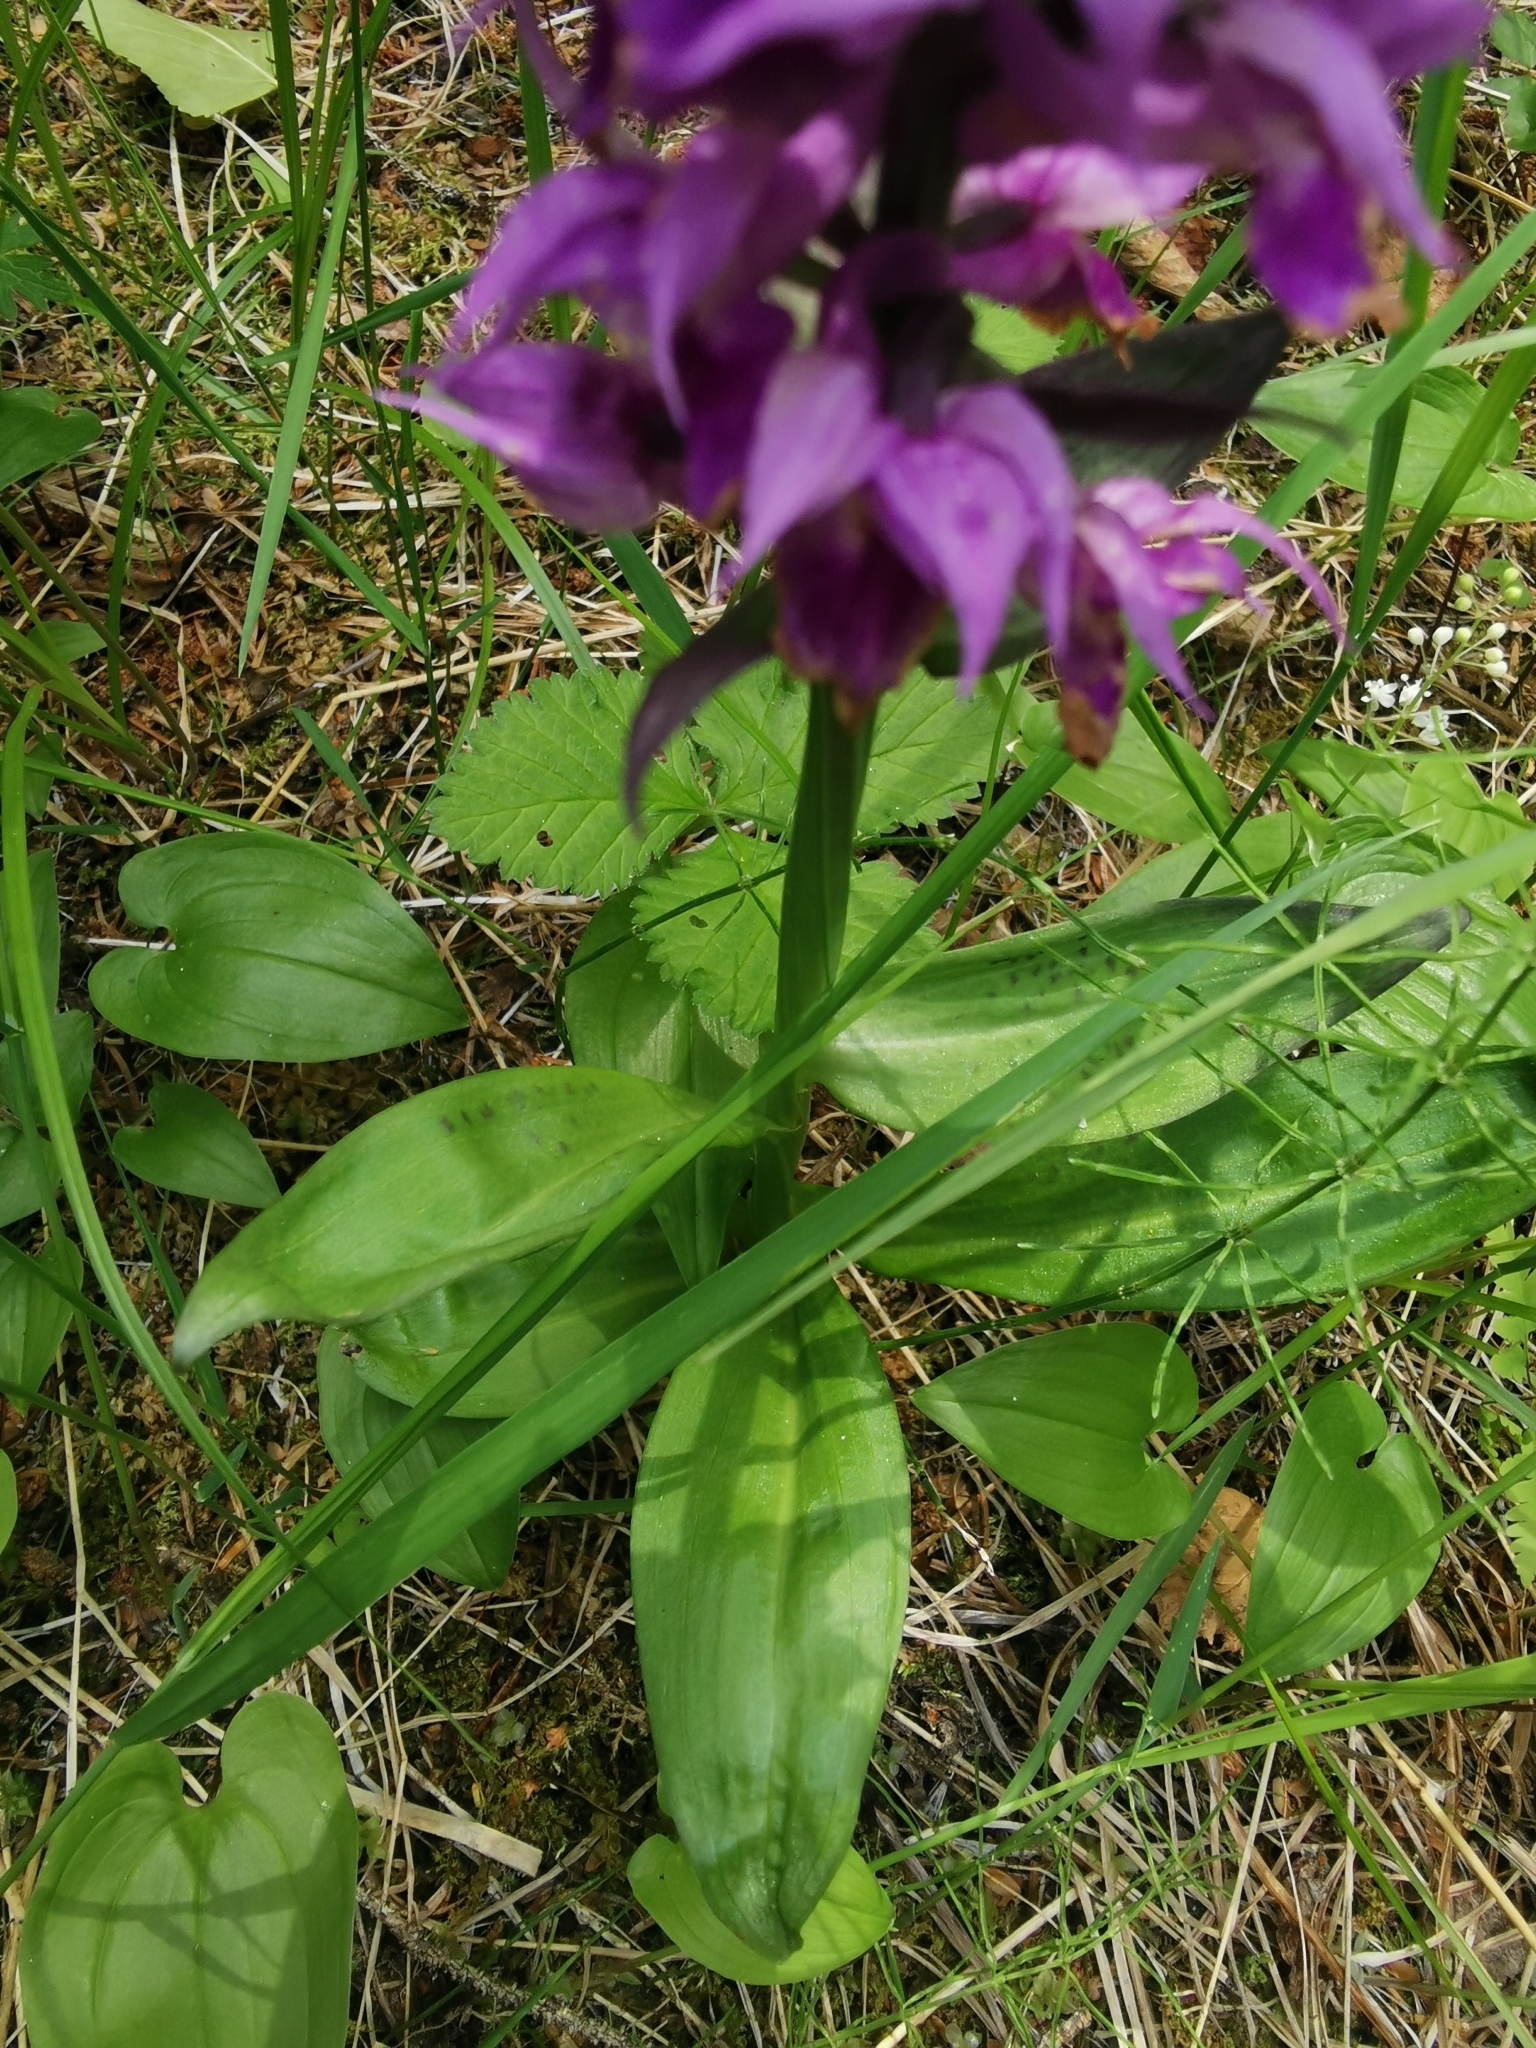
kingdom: Plantae
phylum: Tracheophyta
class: Liliopsida
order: Asparagales
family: Orchidaceae
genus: Dactylorhiza
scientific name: Dactylorhiza aristata
